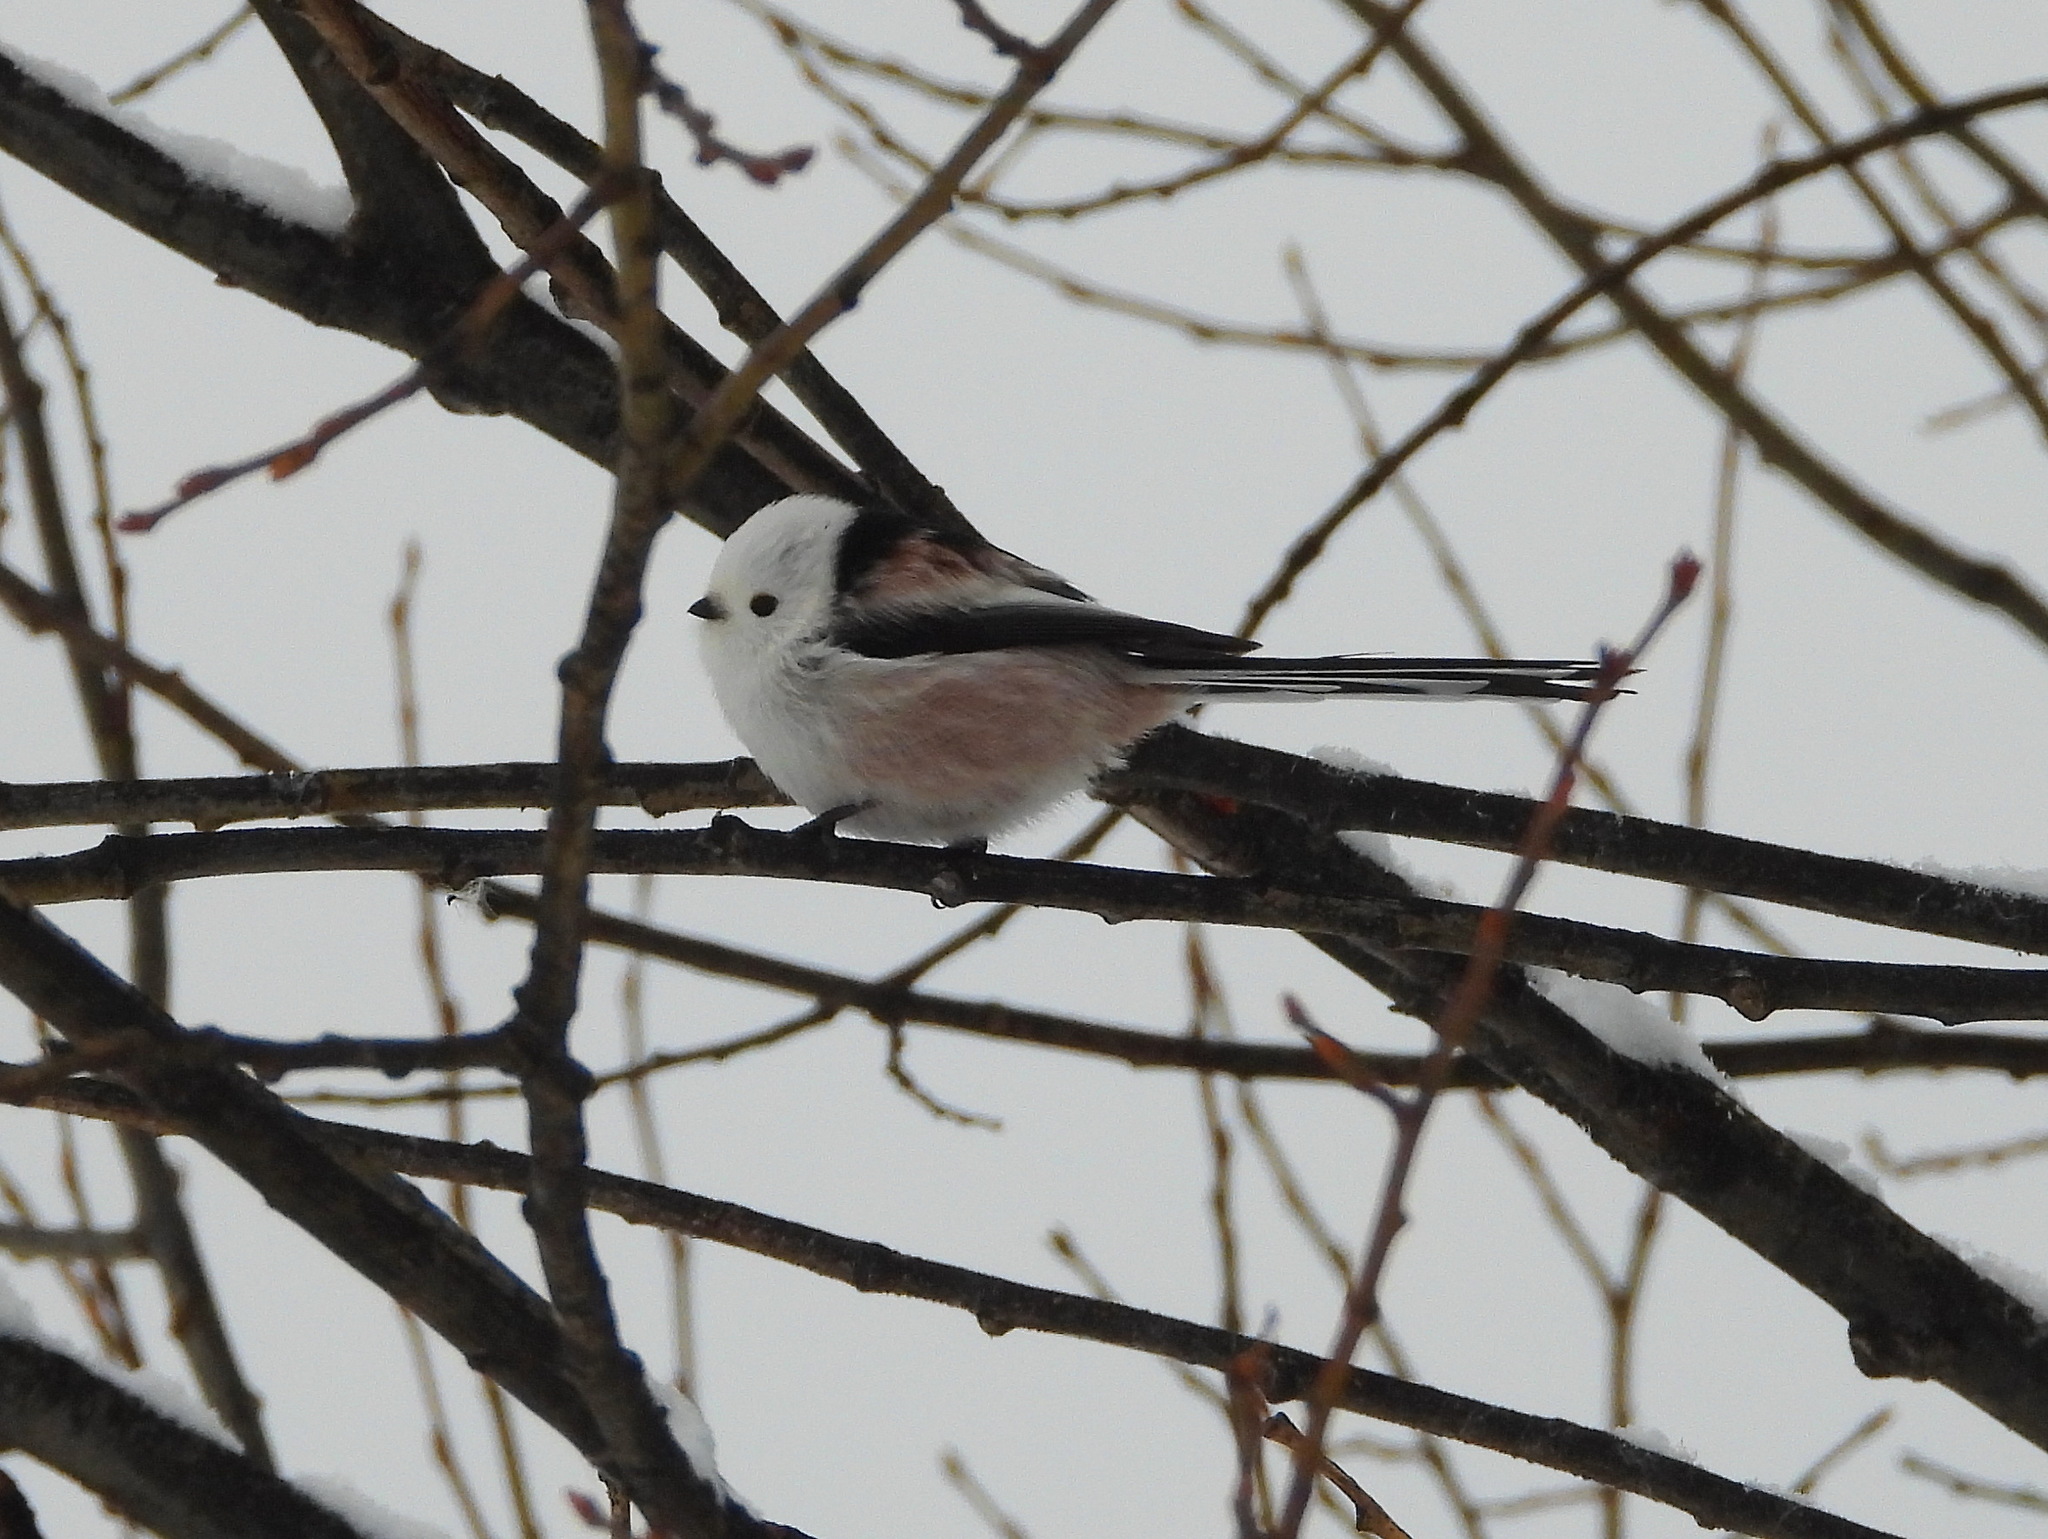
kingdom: Animalia
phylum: Chordata
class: Aves
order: Passeriformes
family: Aegithalidae
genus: Aegithalos
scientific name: Aegithalos caudatus
